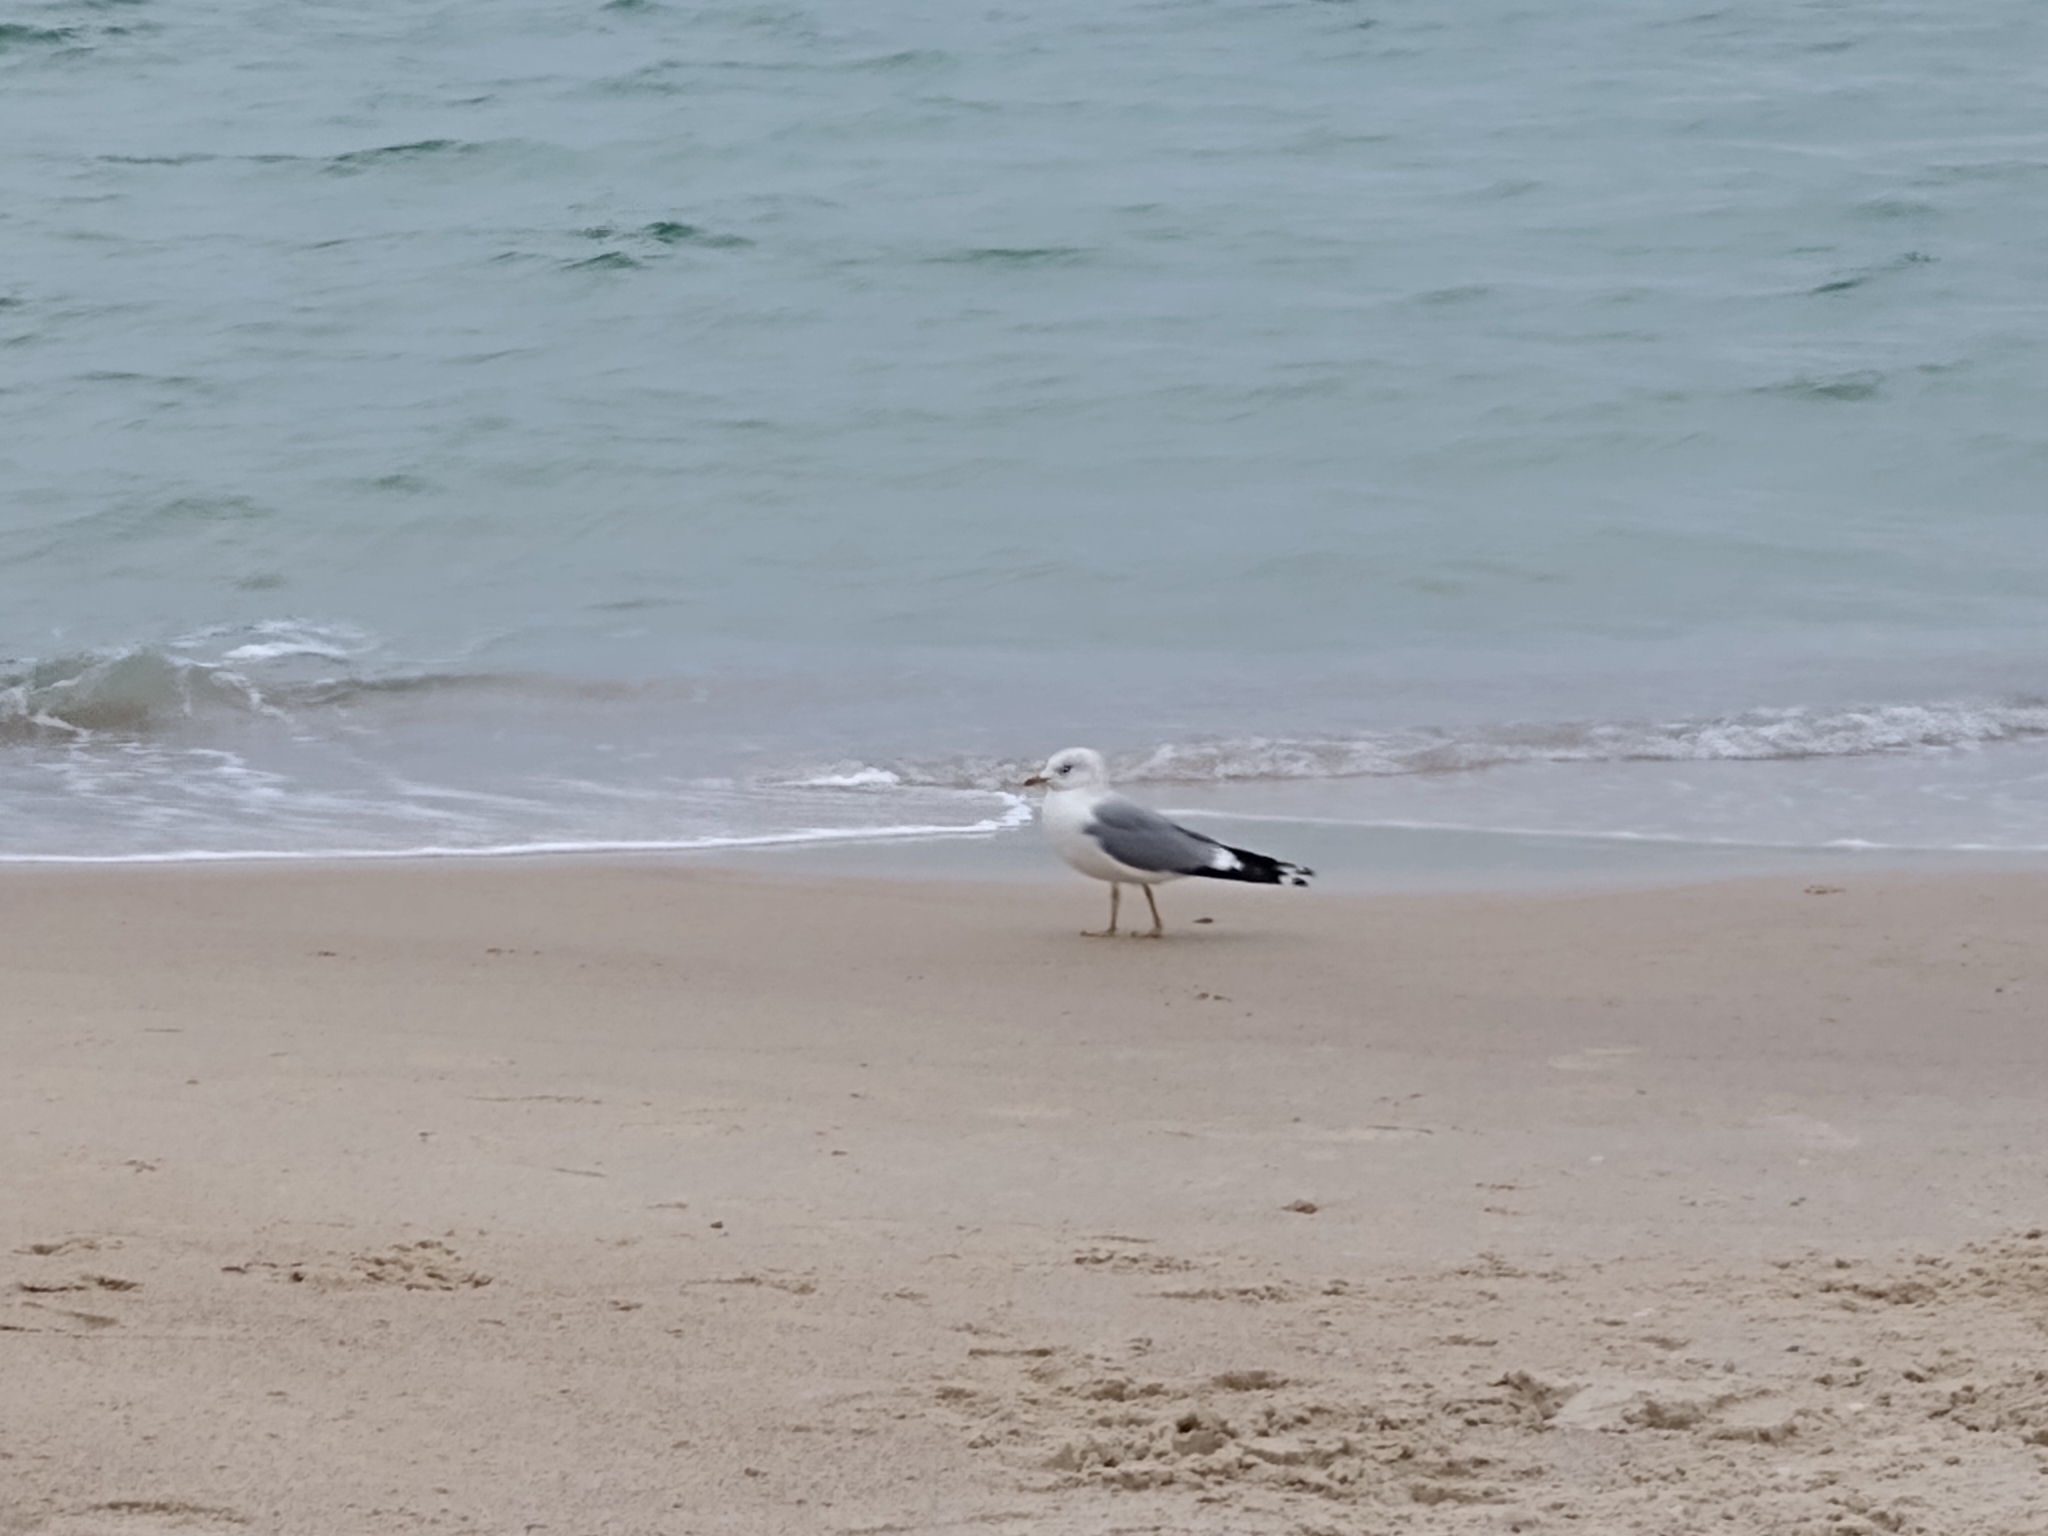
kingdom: Animalia
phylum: Chordata
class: Aves
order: Charadriiformes
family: Laridae
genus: Larus
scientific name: Larus canus
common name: Mew gull
